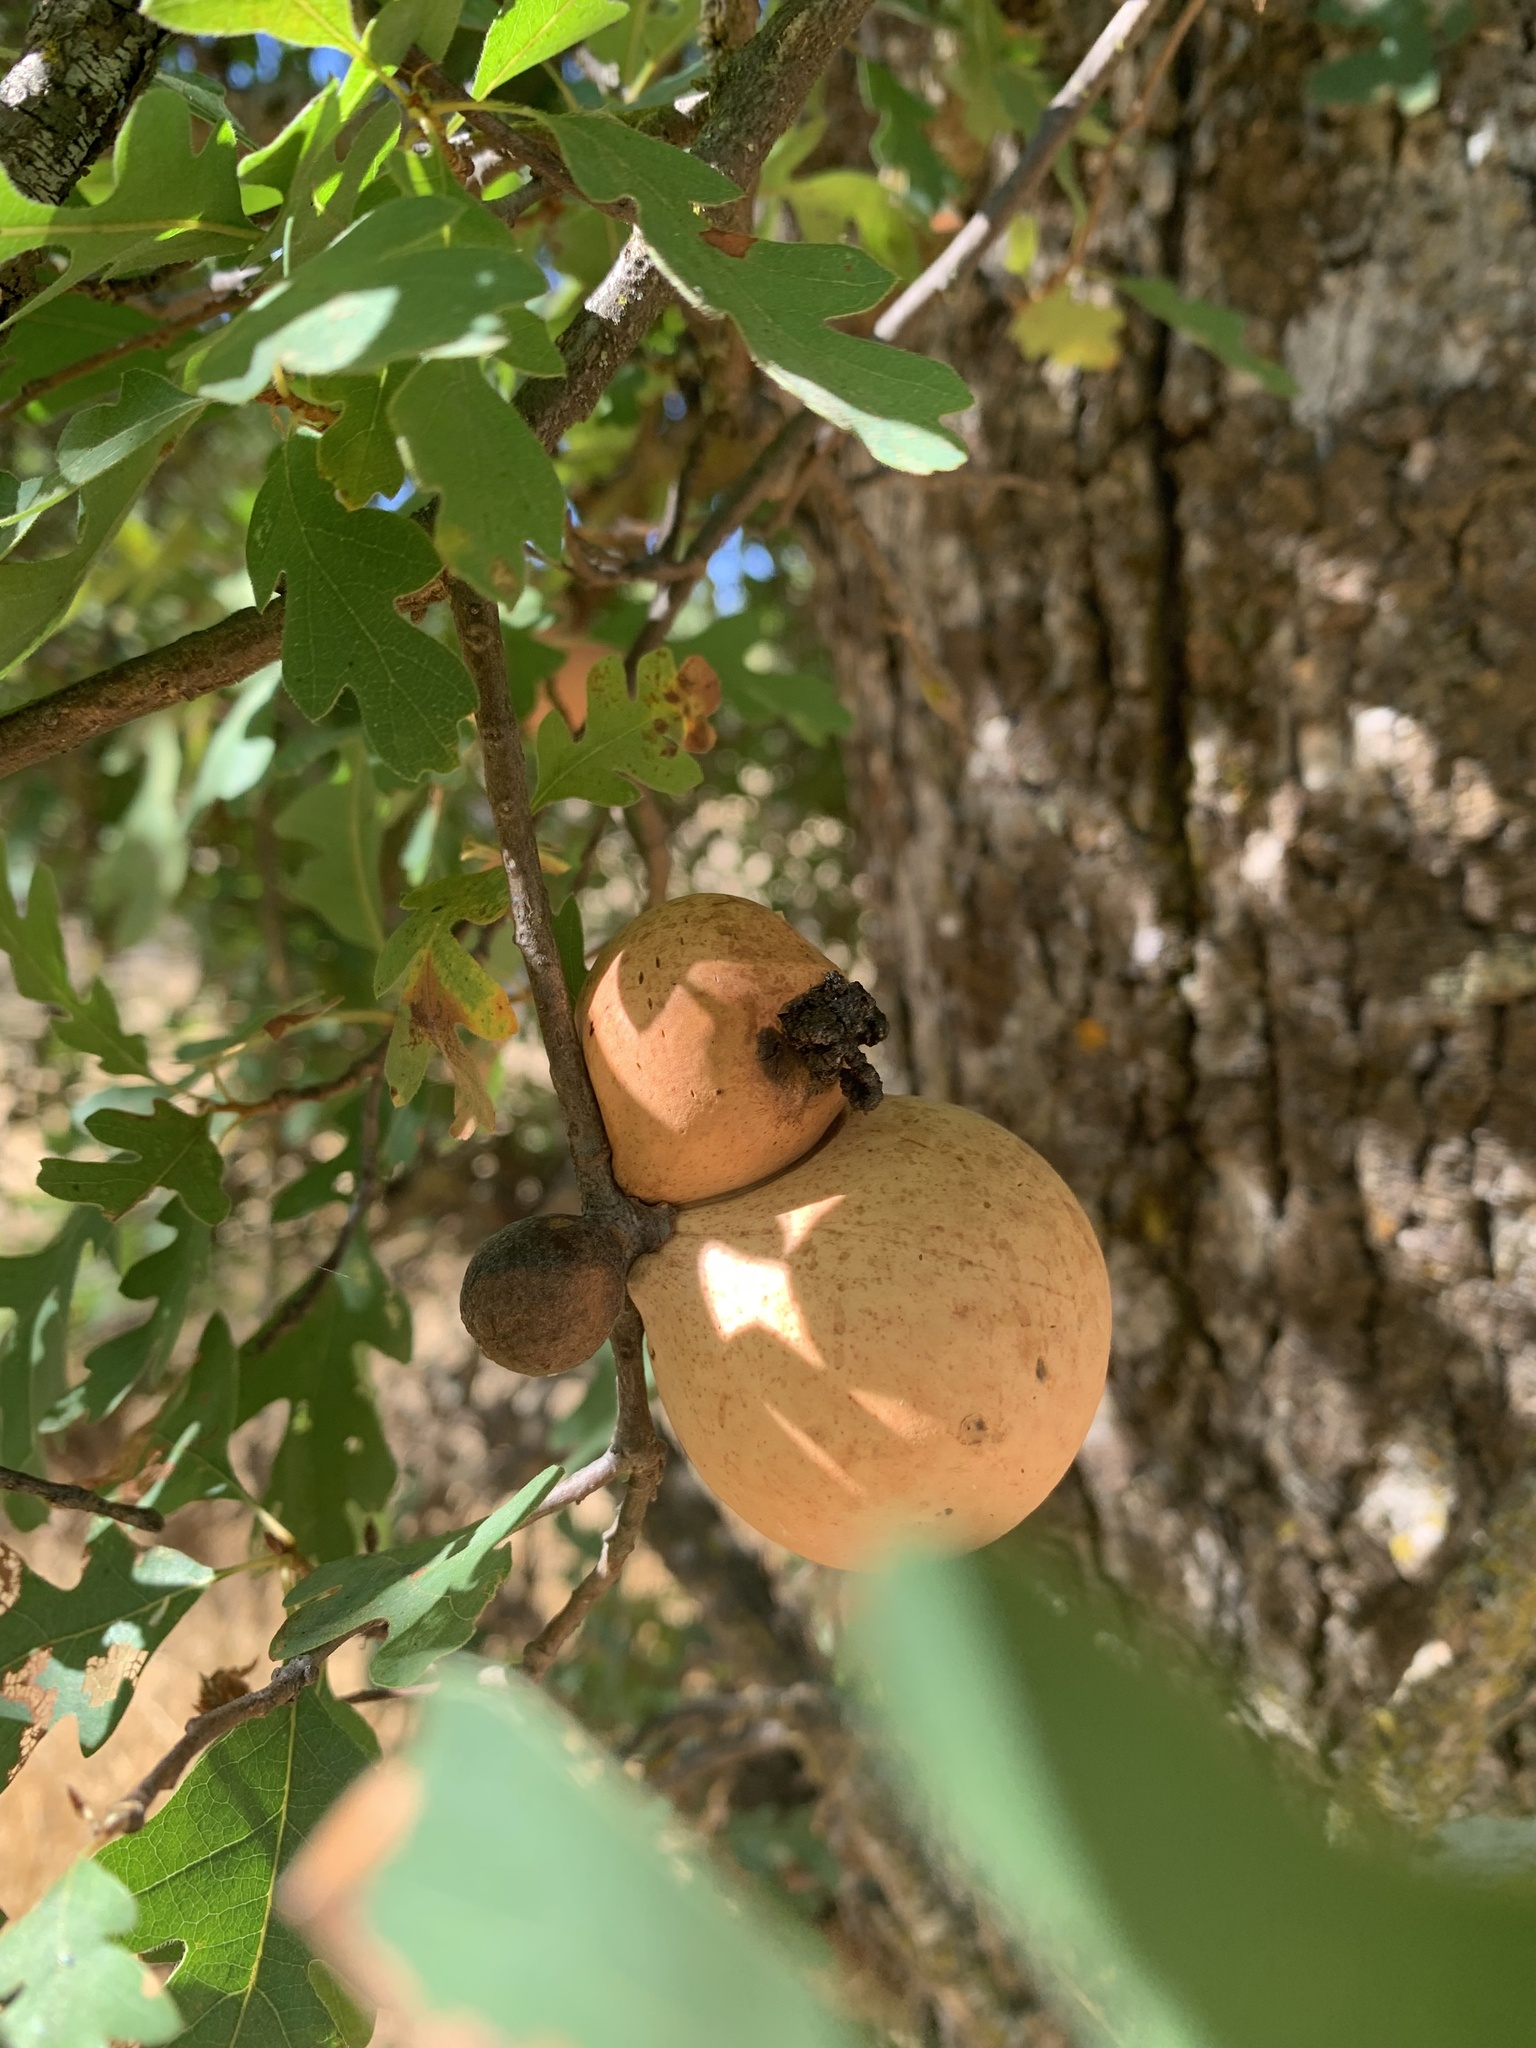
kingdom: Animalia
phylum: Arthropoda
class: Insecta
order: Hymenoptera
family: Cynipidae
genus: Andricus
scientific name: Andricus quercuscalifornicus
